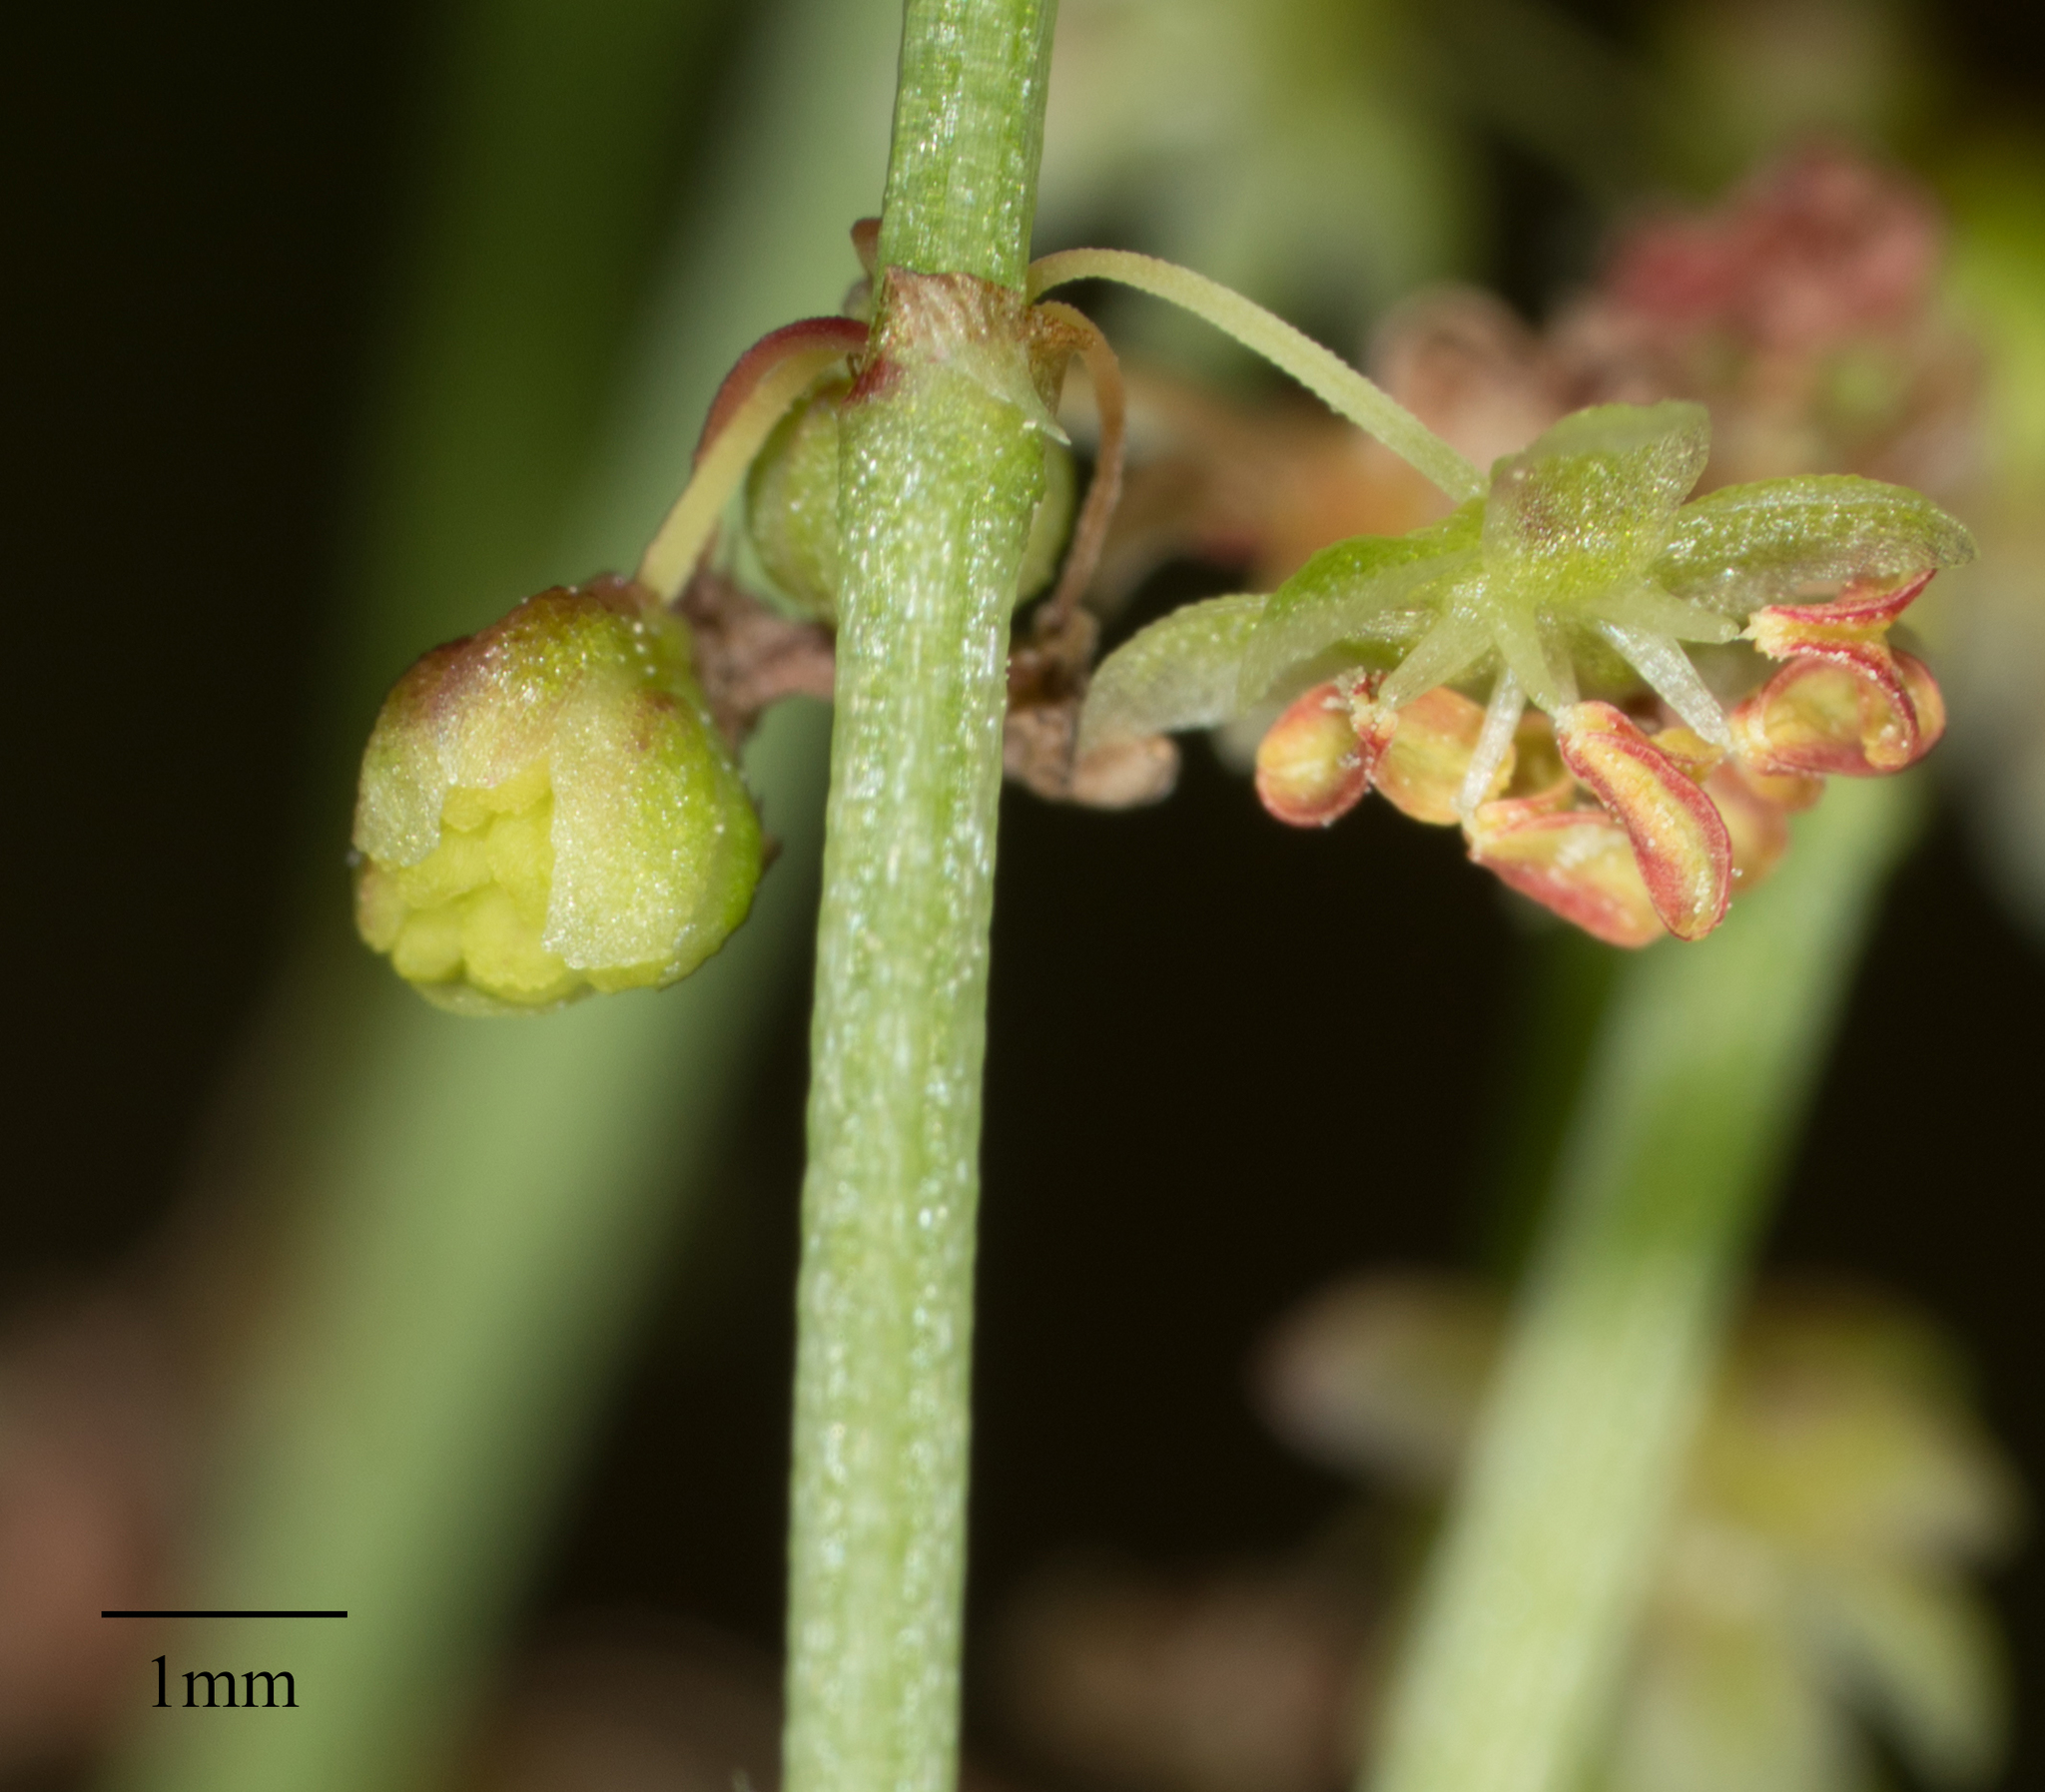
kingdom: Plantae
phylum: Tracheophyta
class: Magnoliopsida
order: Caryophyllales
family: Polygonaceae
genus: Rumex
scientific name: Rumex acetosella
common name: Common sheep sorrel
